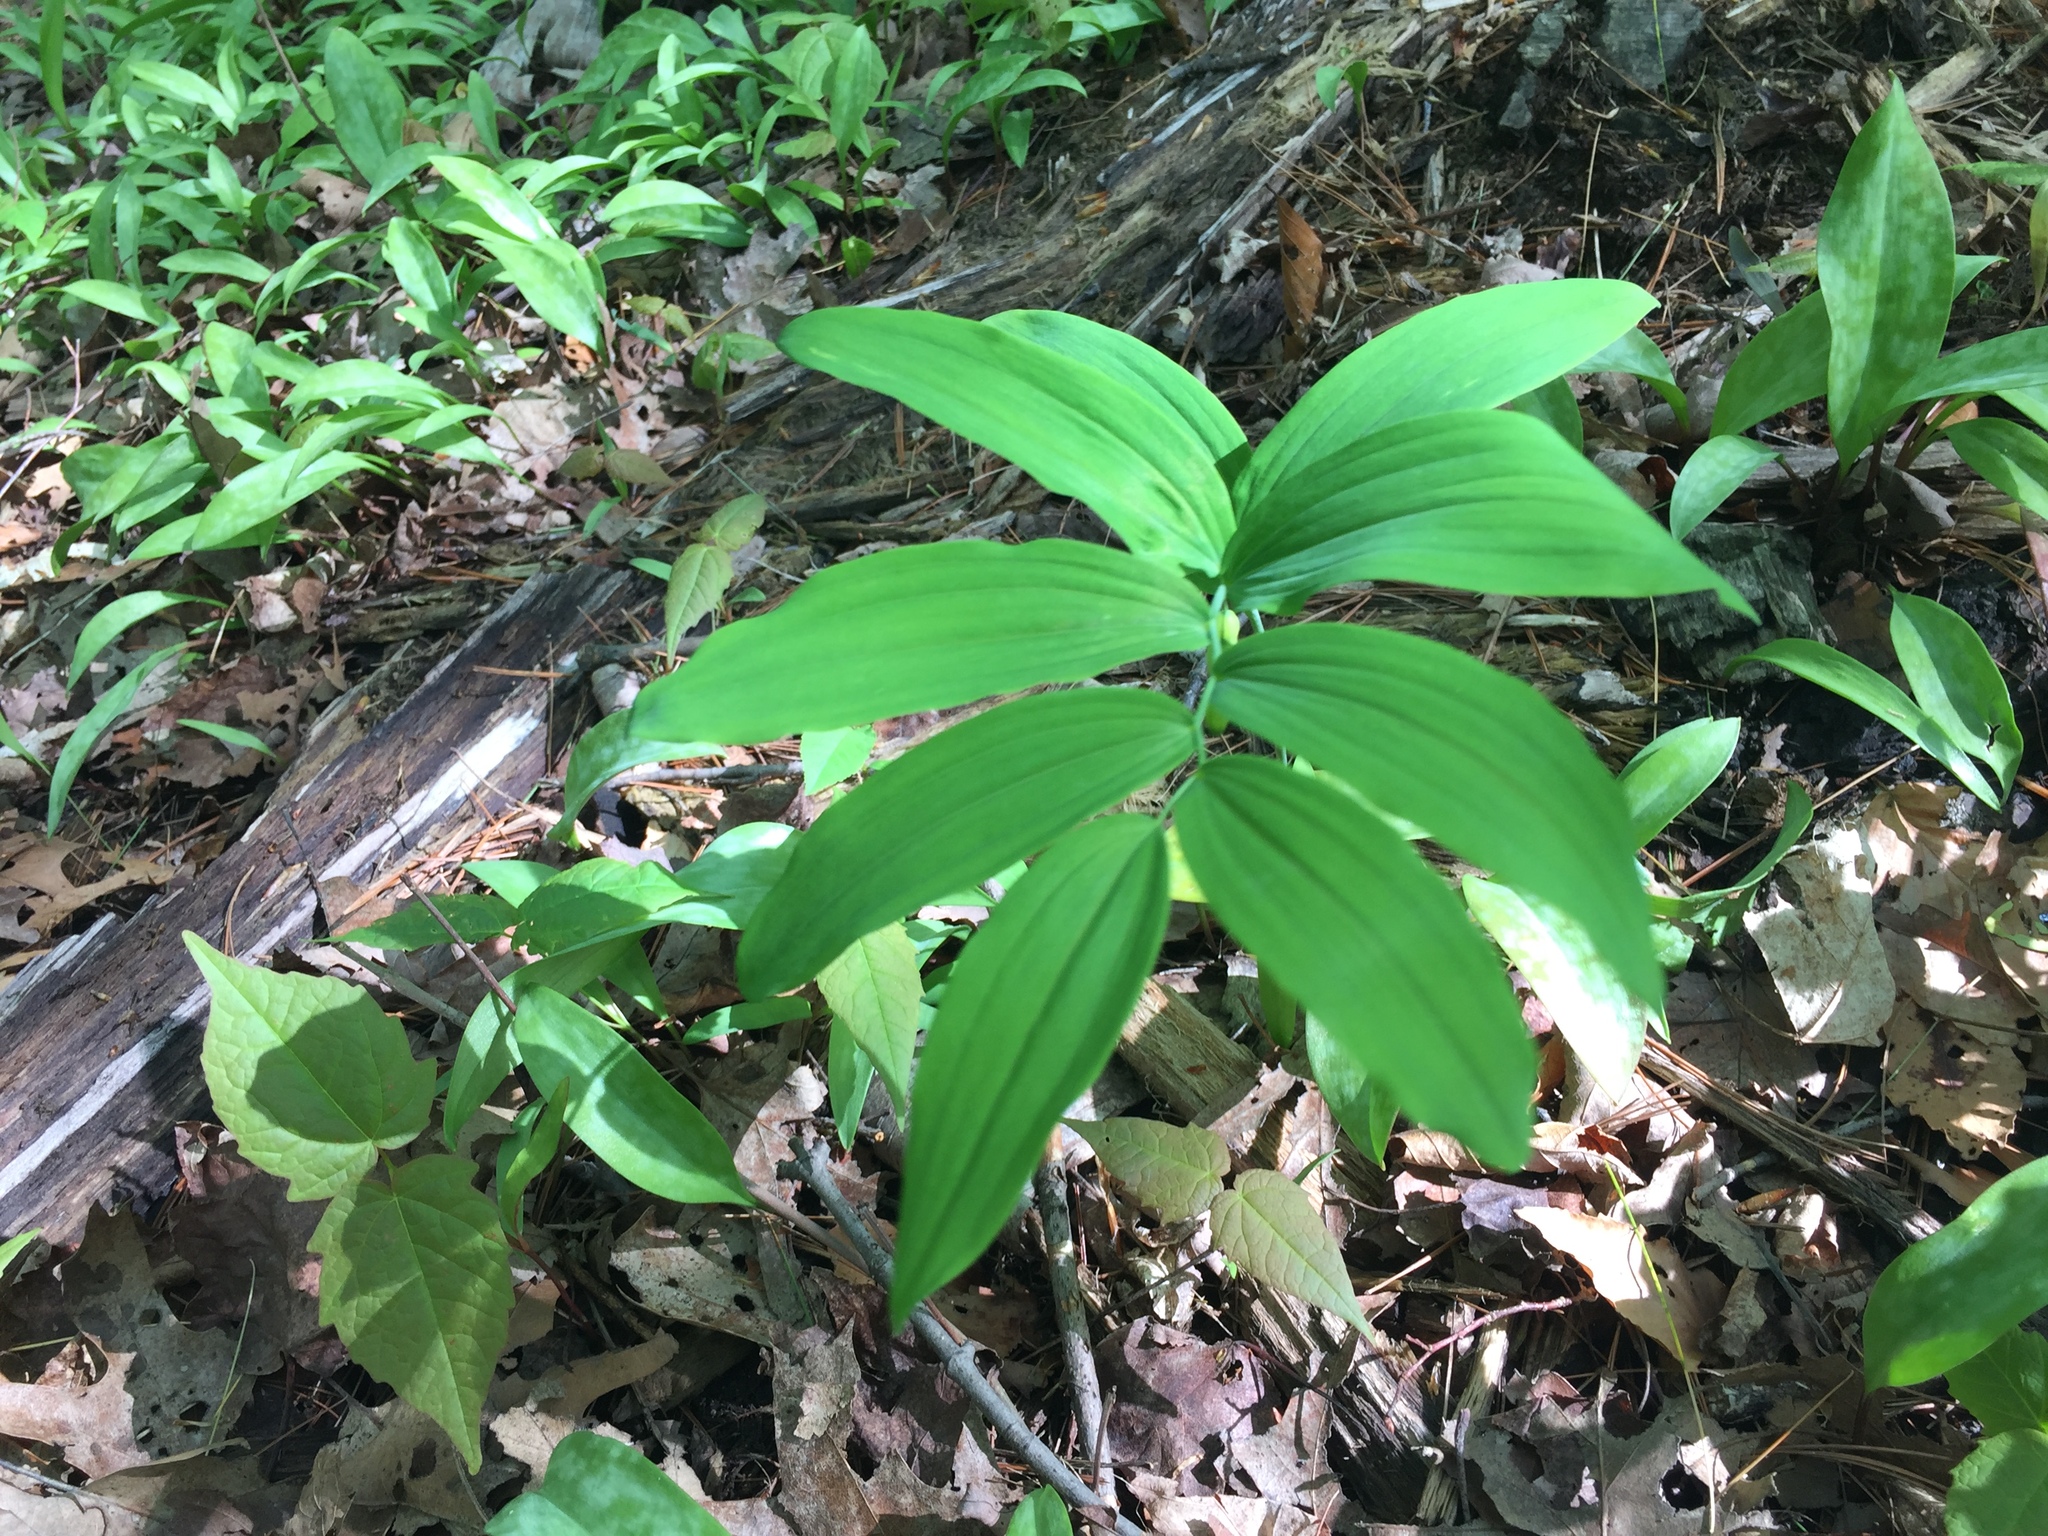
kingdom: Plantae
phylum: Tracheophyta
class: Liliopsida
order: Asparagales
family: Asparagaceae
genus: Polygonatum
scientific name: Polygonatum pubescens
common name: Downy solomon's seal
